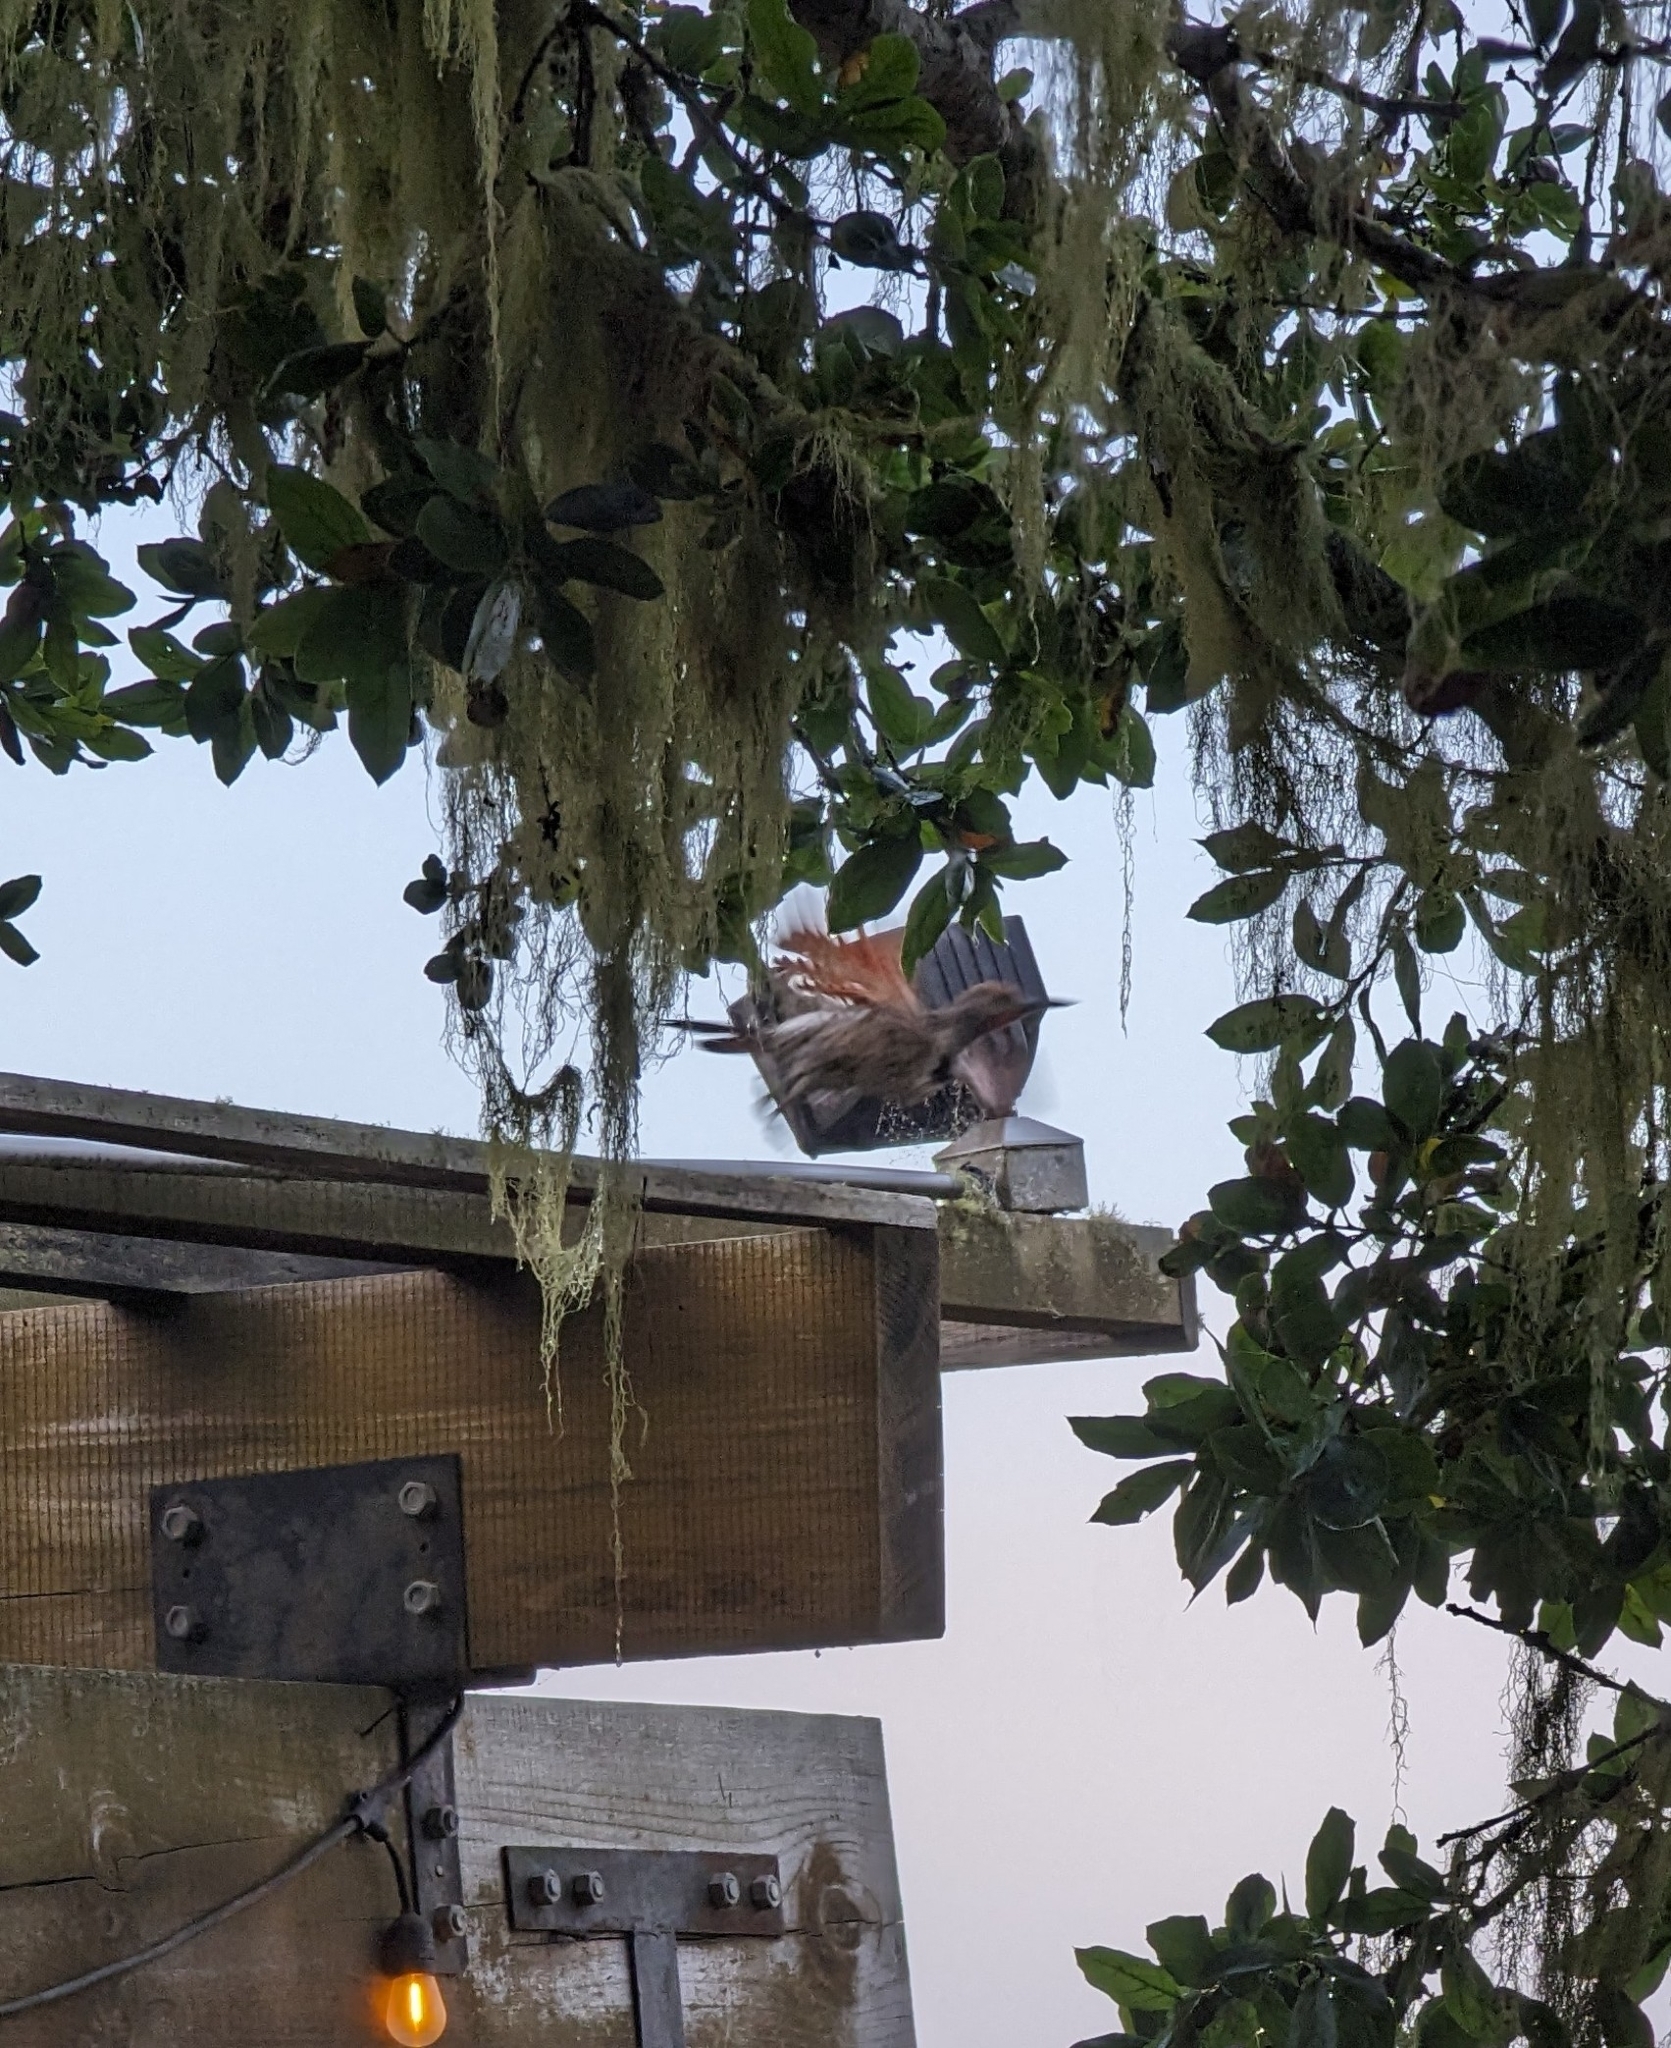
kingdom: Animalia
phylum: Chordata
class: Aves
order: Piciformes
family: Picidae
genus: Colaptes
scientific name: Colaptes auratus
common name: Northern flicker
